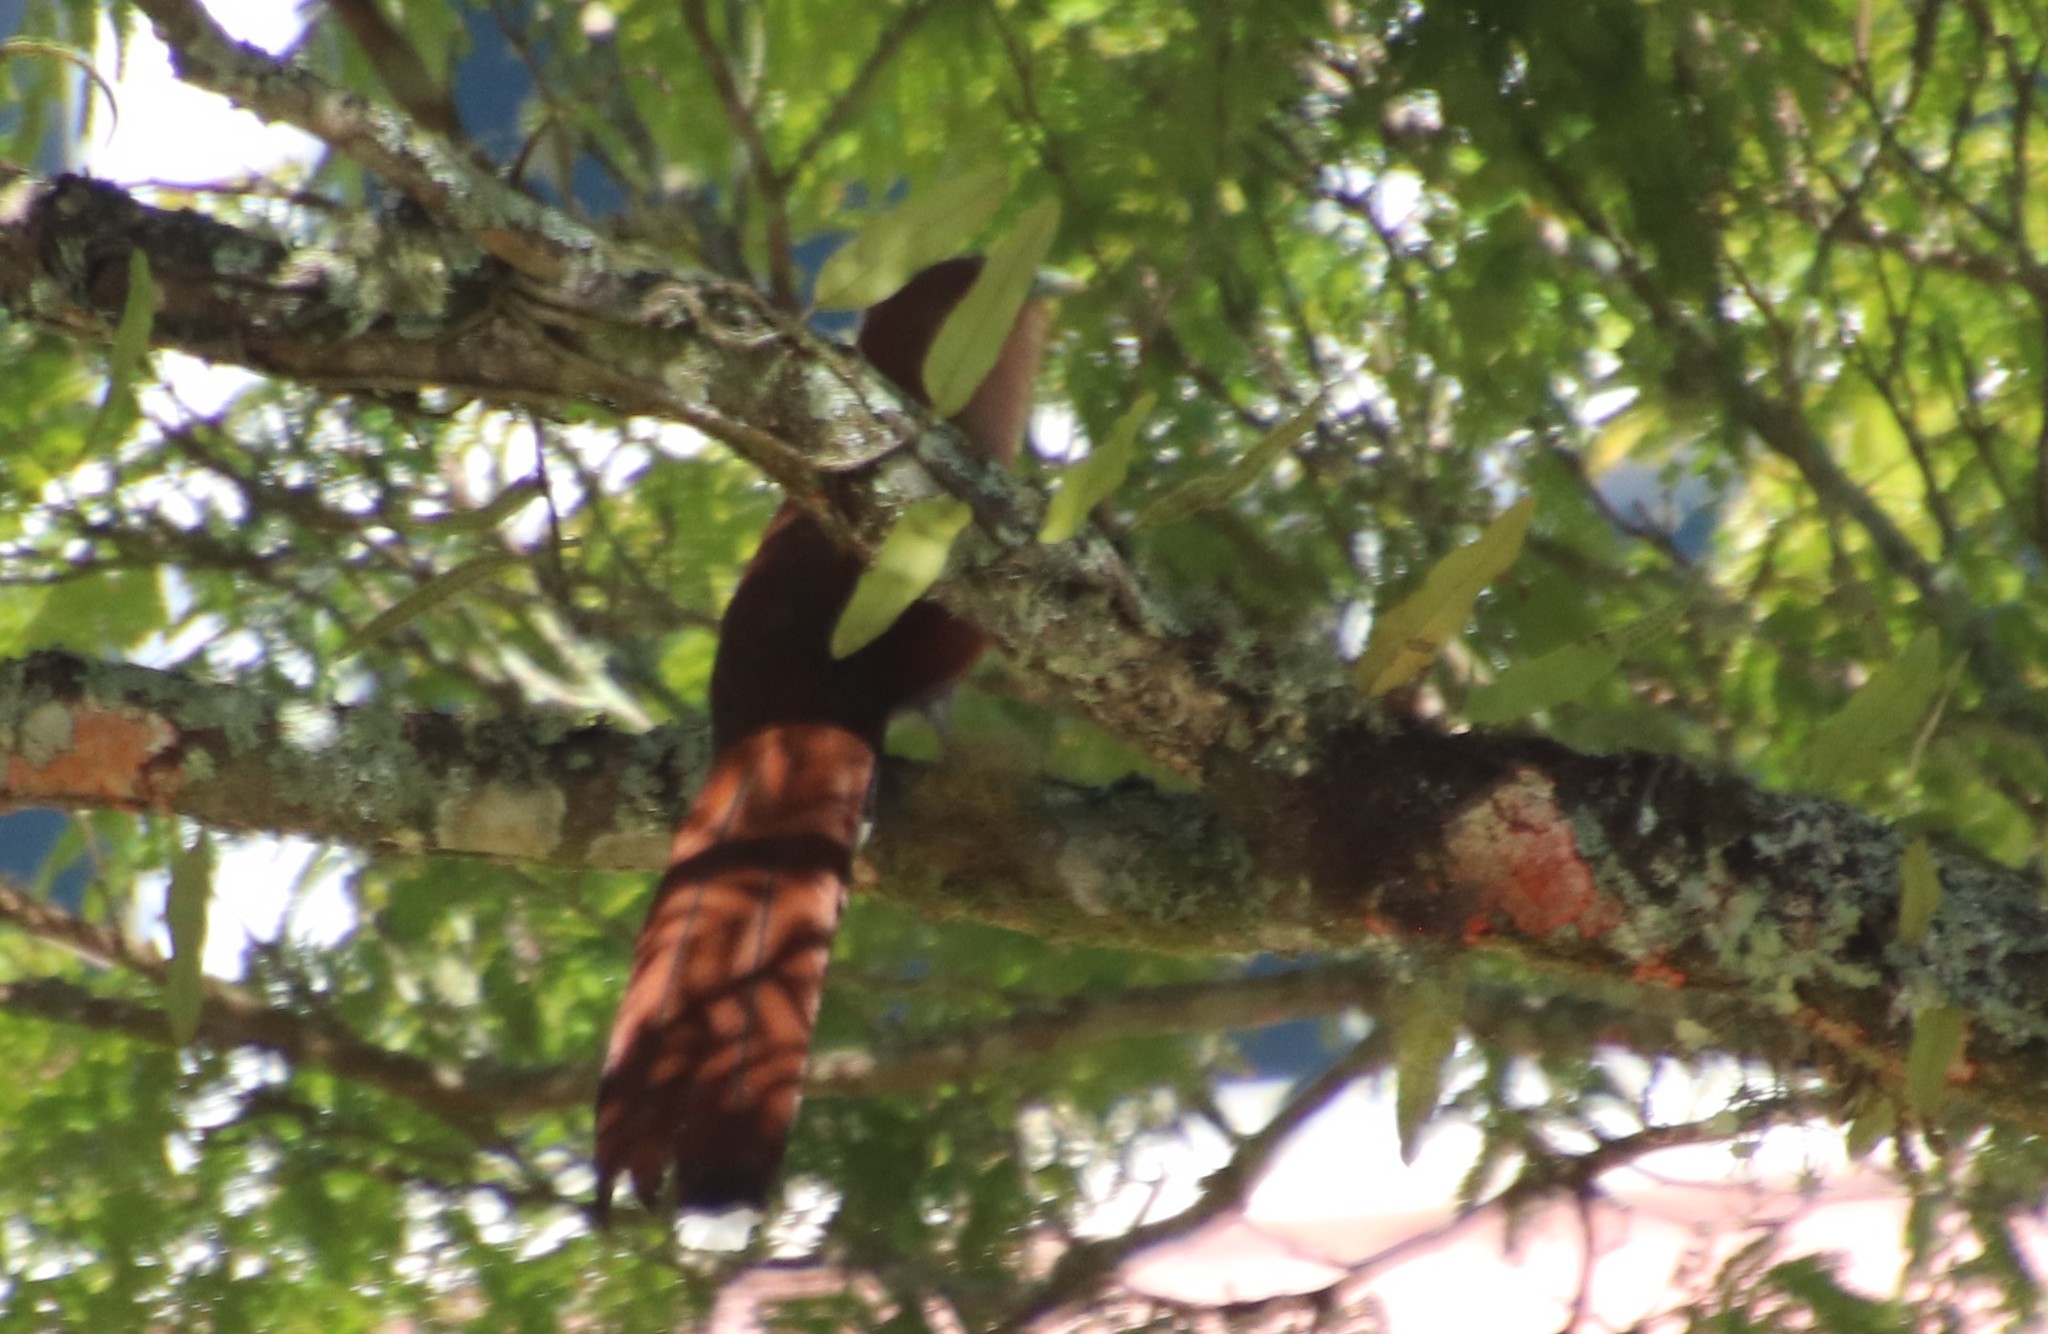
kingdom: Animalia
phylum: Chordata
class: Aves
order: Cuculiformes
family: Cuculidae
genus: Piaya
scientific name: Piaya cayana
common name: Squirrel cuckoo
